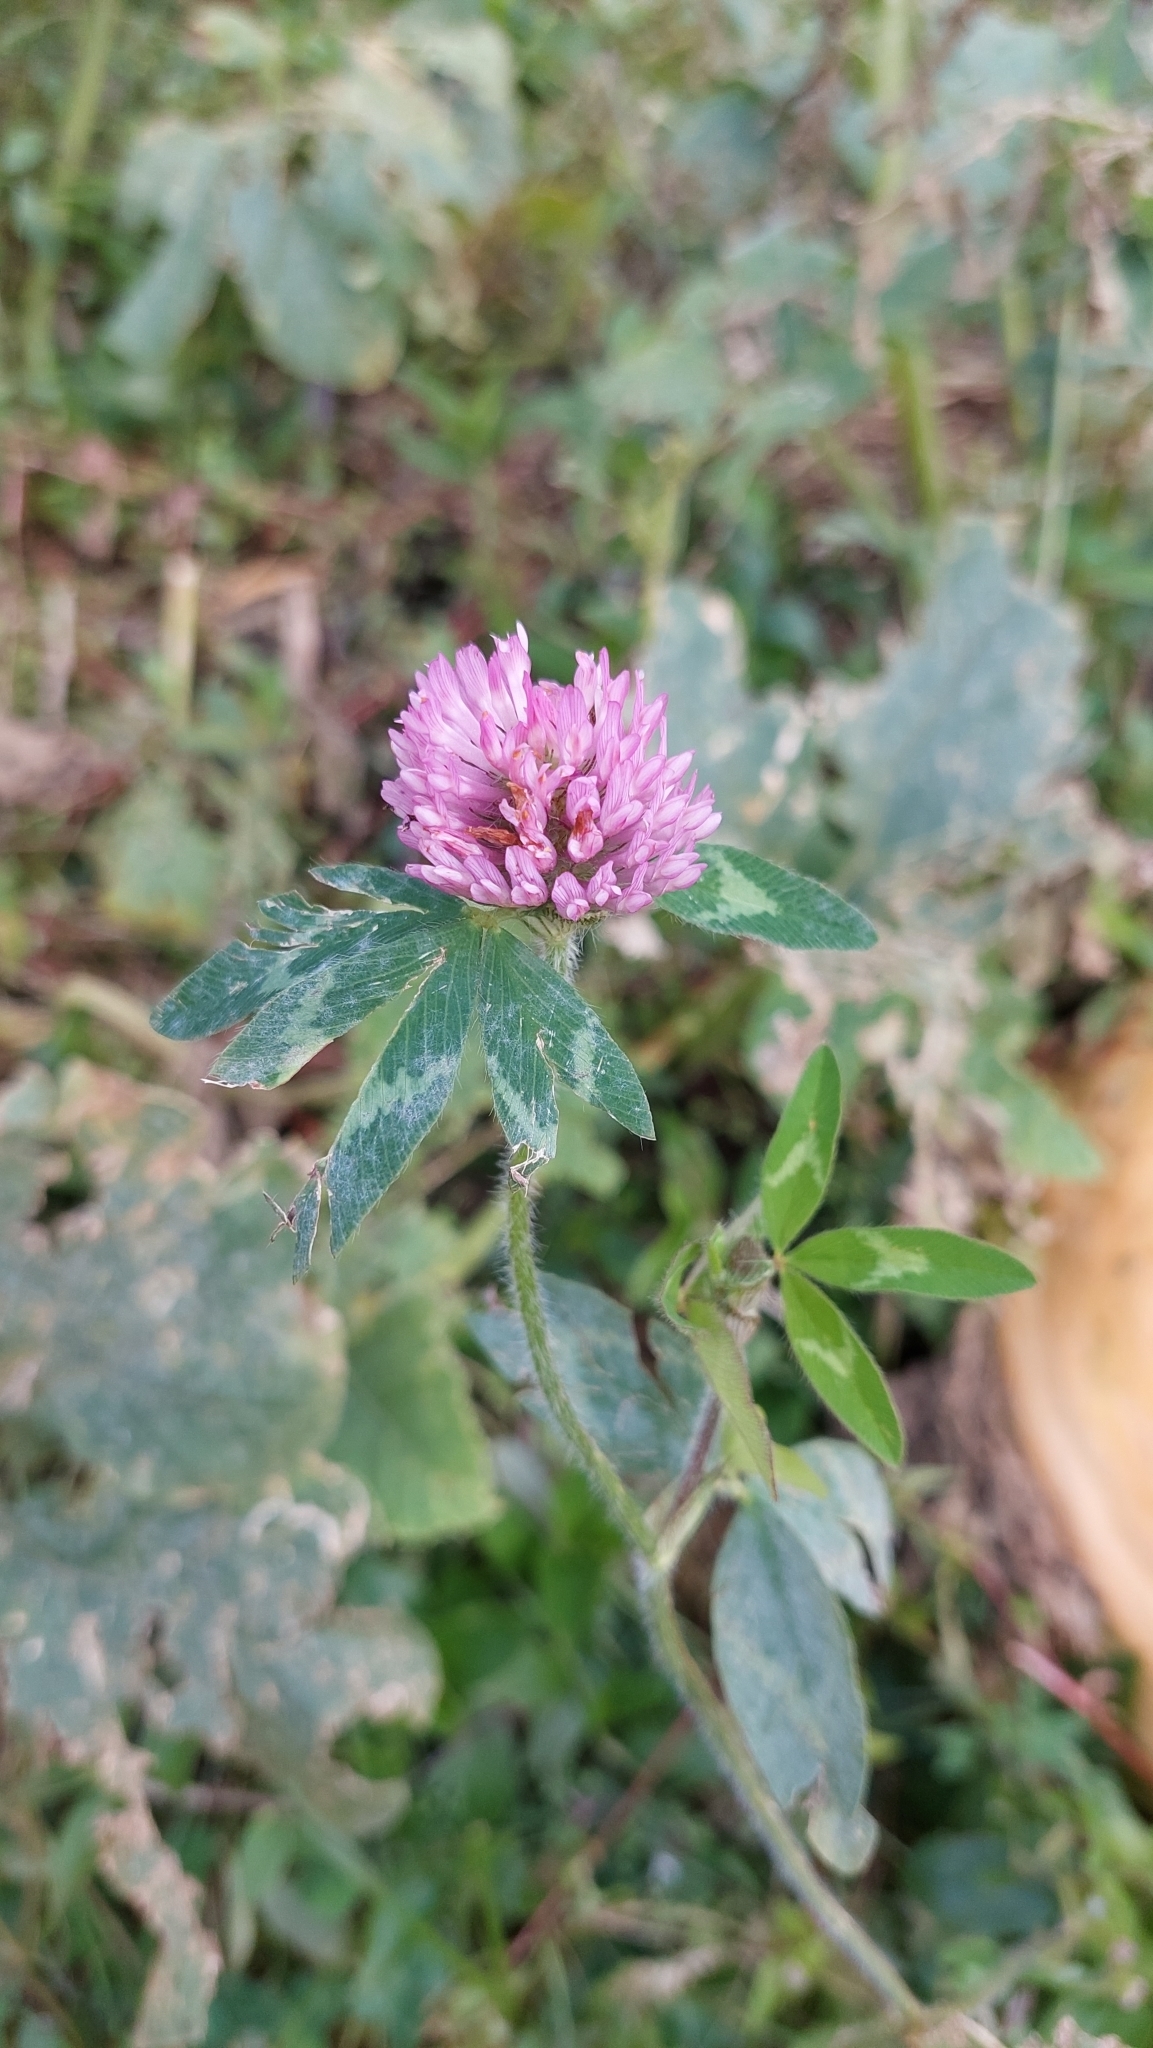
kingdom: Plantae
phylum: Tracheophyta
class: Magnoliopsida
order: Fabales
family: Fabaceae
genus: Trifolium
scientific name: Trifolium pratense
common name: Red clover
